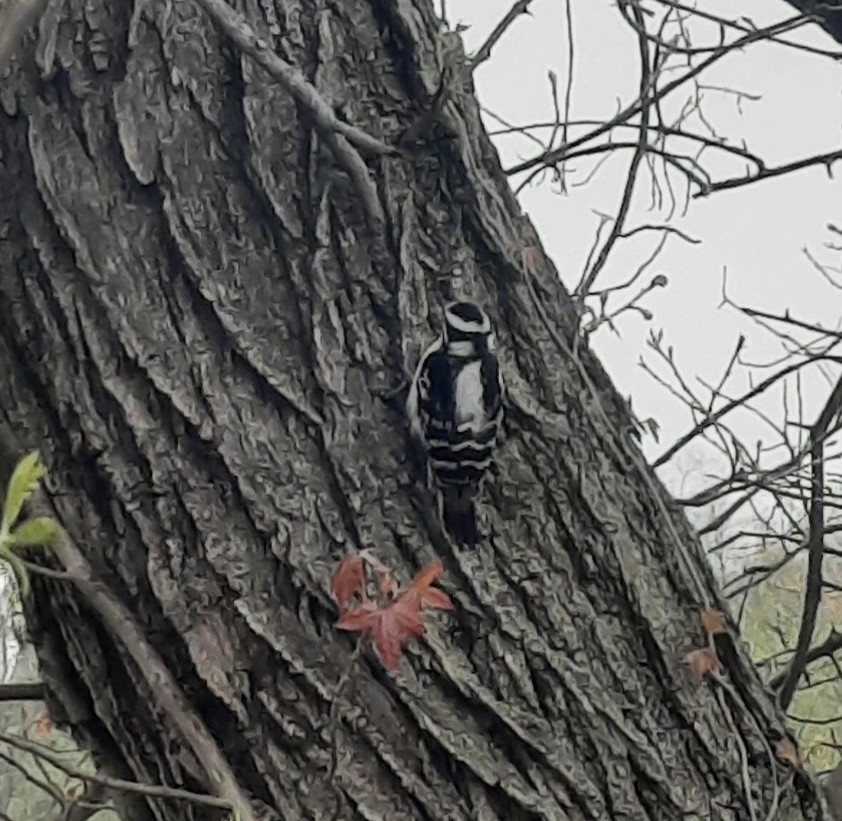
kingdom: Animalia
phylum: Chordata
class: Aves
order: Piciformes
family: Picidae
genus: Dryobates
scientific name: Dryobates pubescens
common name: Downy woodpecker
